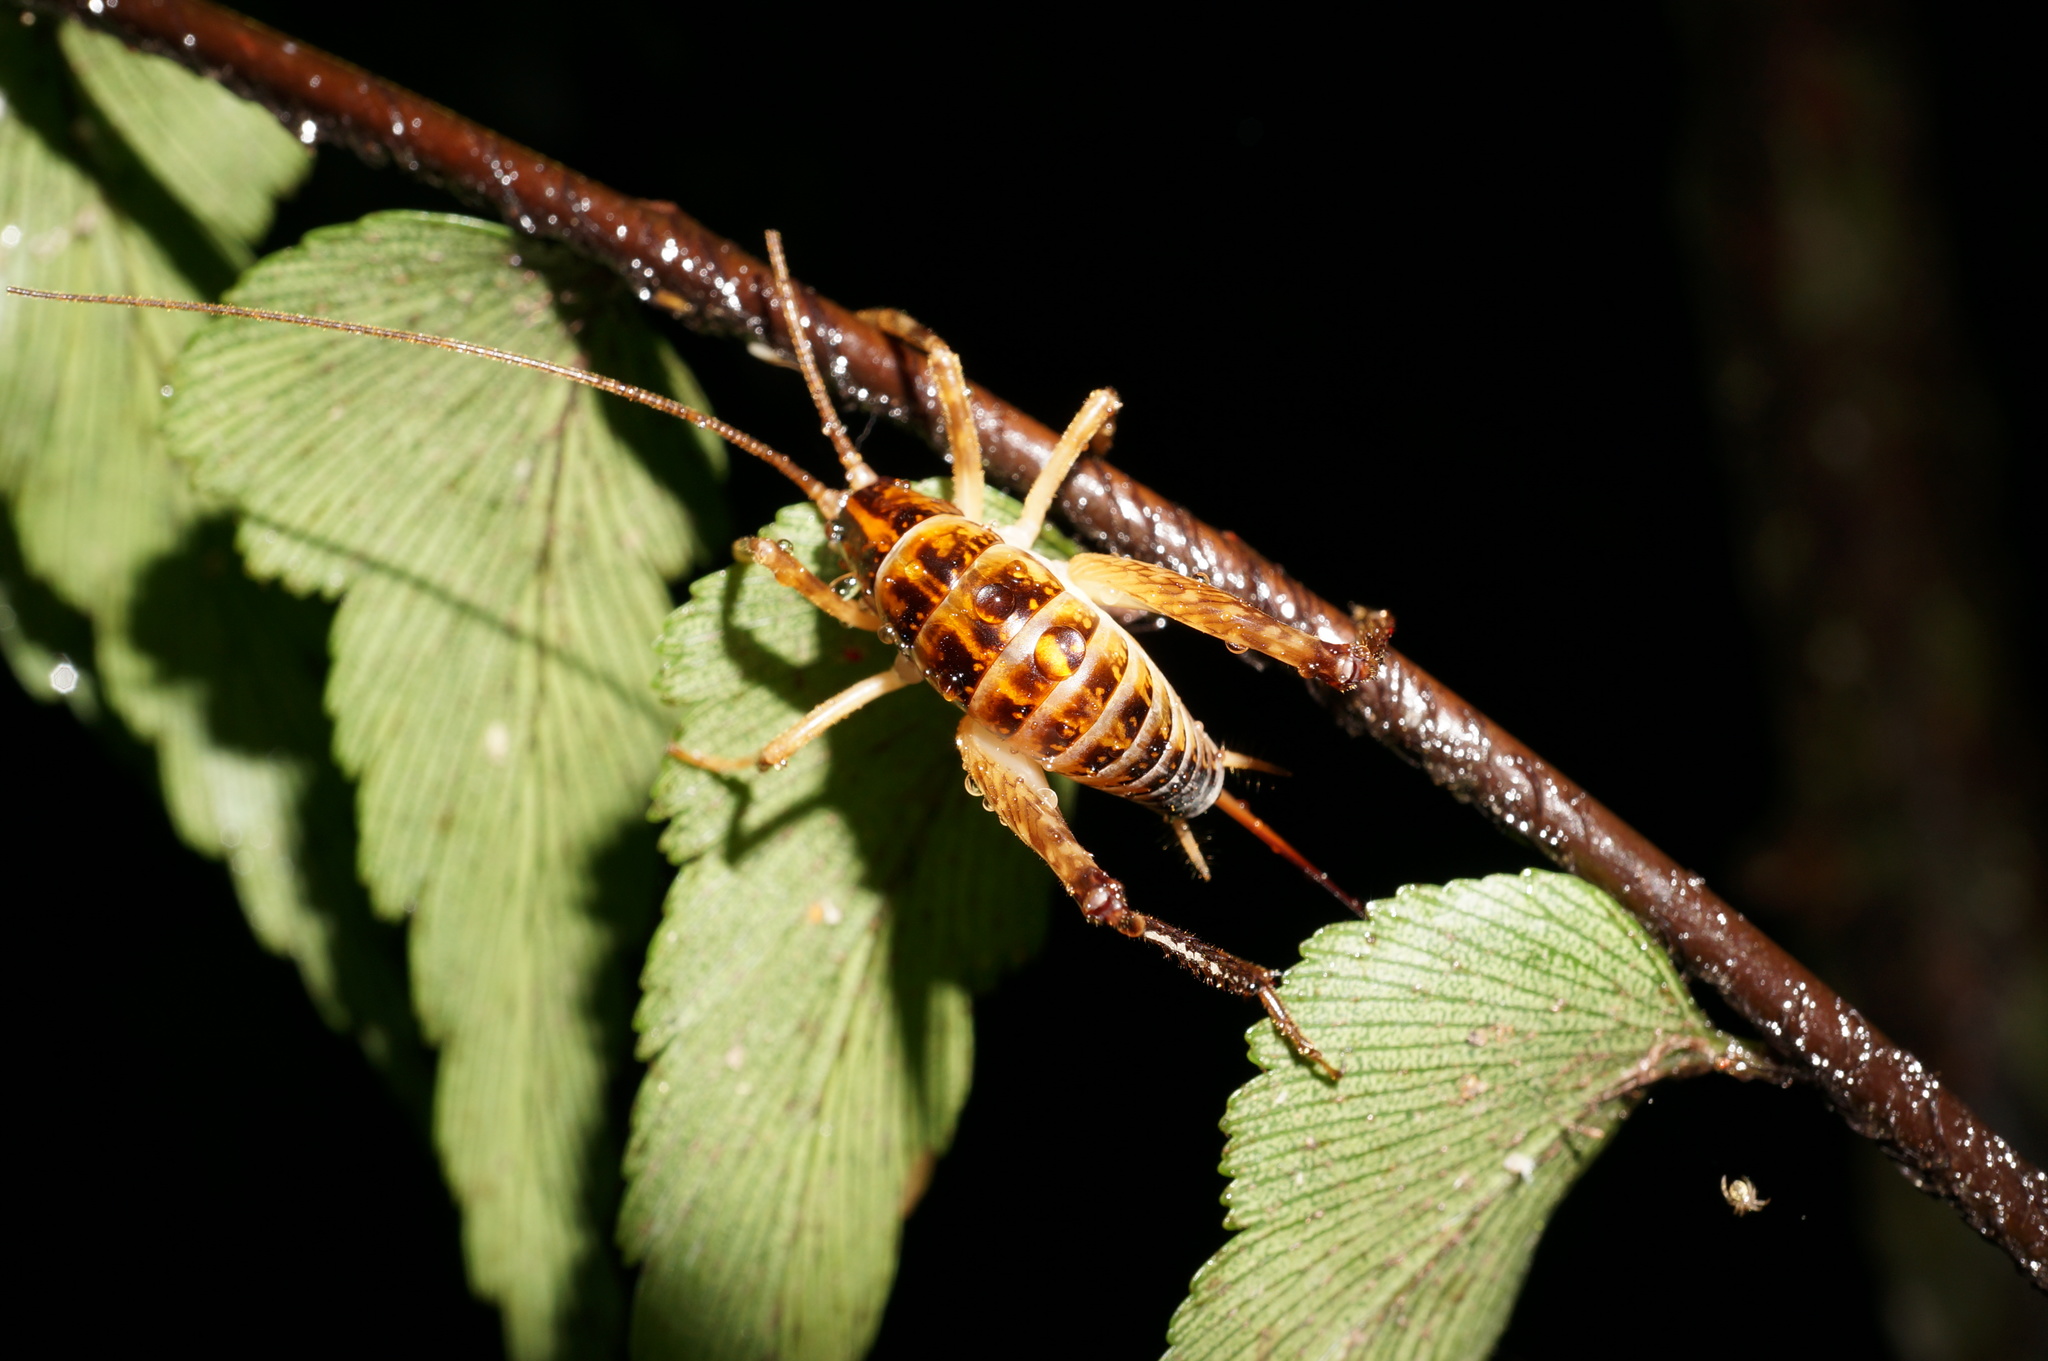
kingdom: Animalia
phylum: Arthropoda
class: Insecta
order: Orthoptera
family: Rhaphidophoridae
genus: Talitropsis
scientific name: Talitropsis sedilloti
